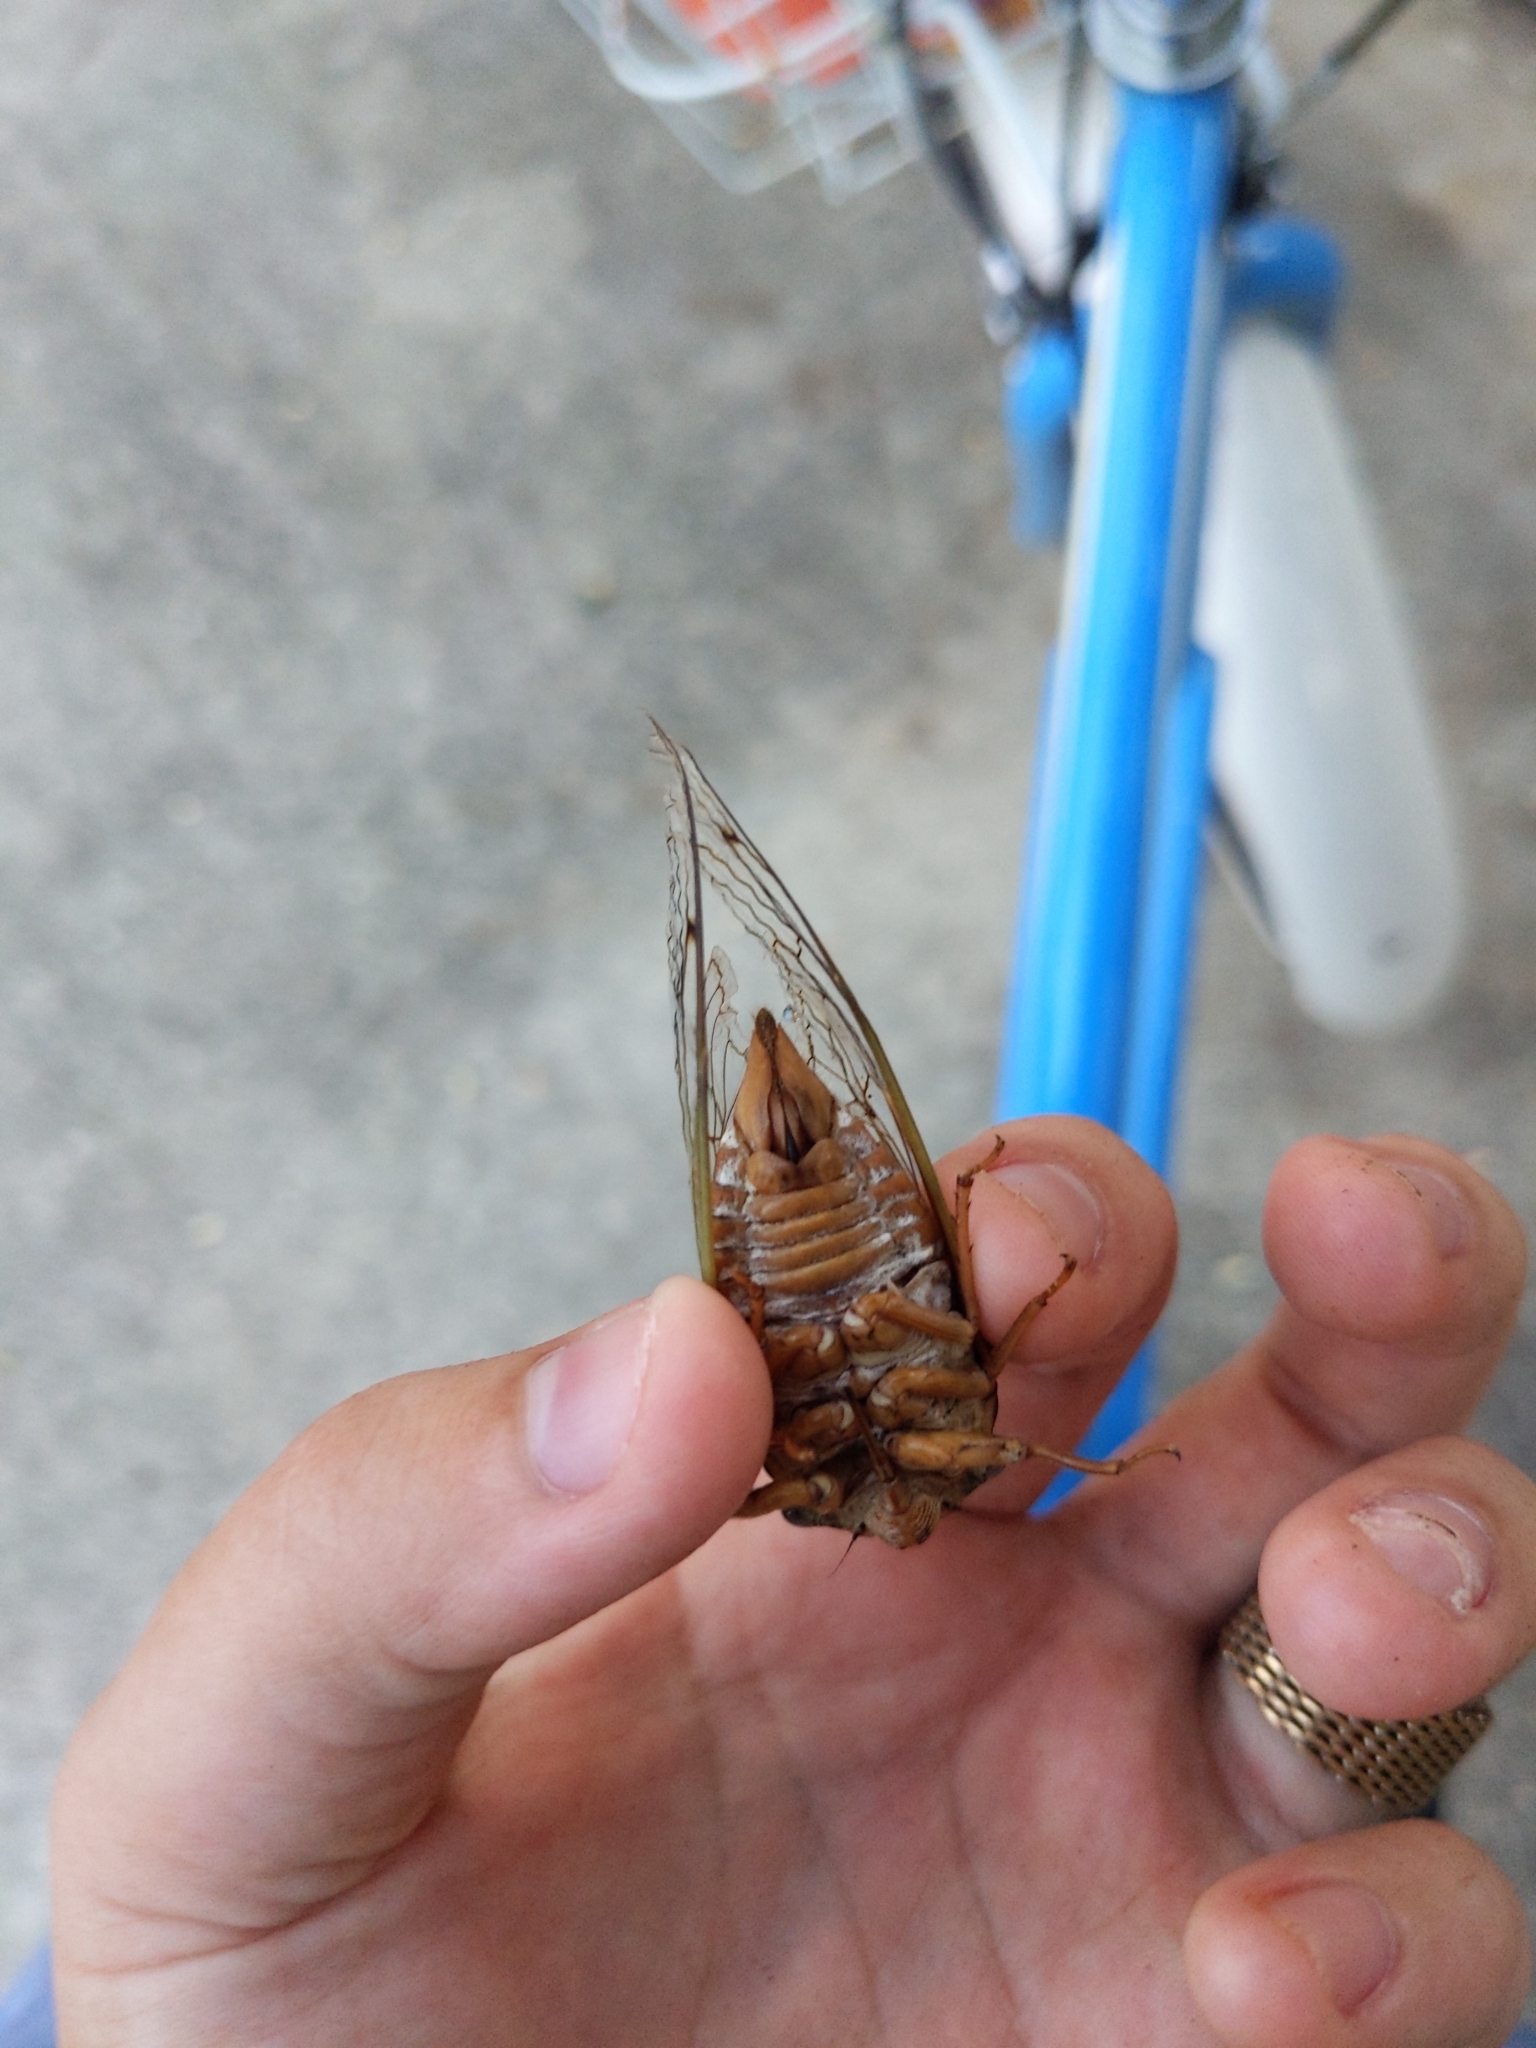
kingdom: Animalia
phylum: Arthropoda
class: Insecta
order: Hemiptera
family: Cicadidae
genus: Megatibicen
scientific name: Megatibicen resh
